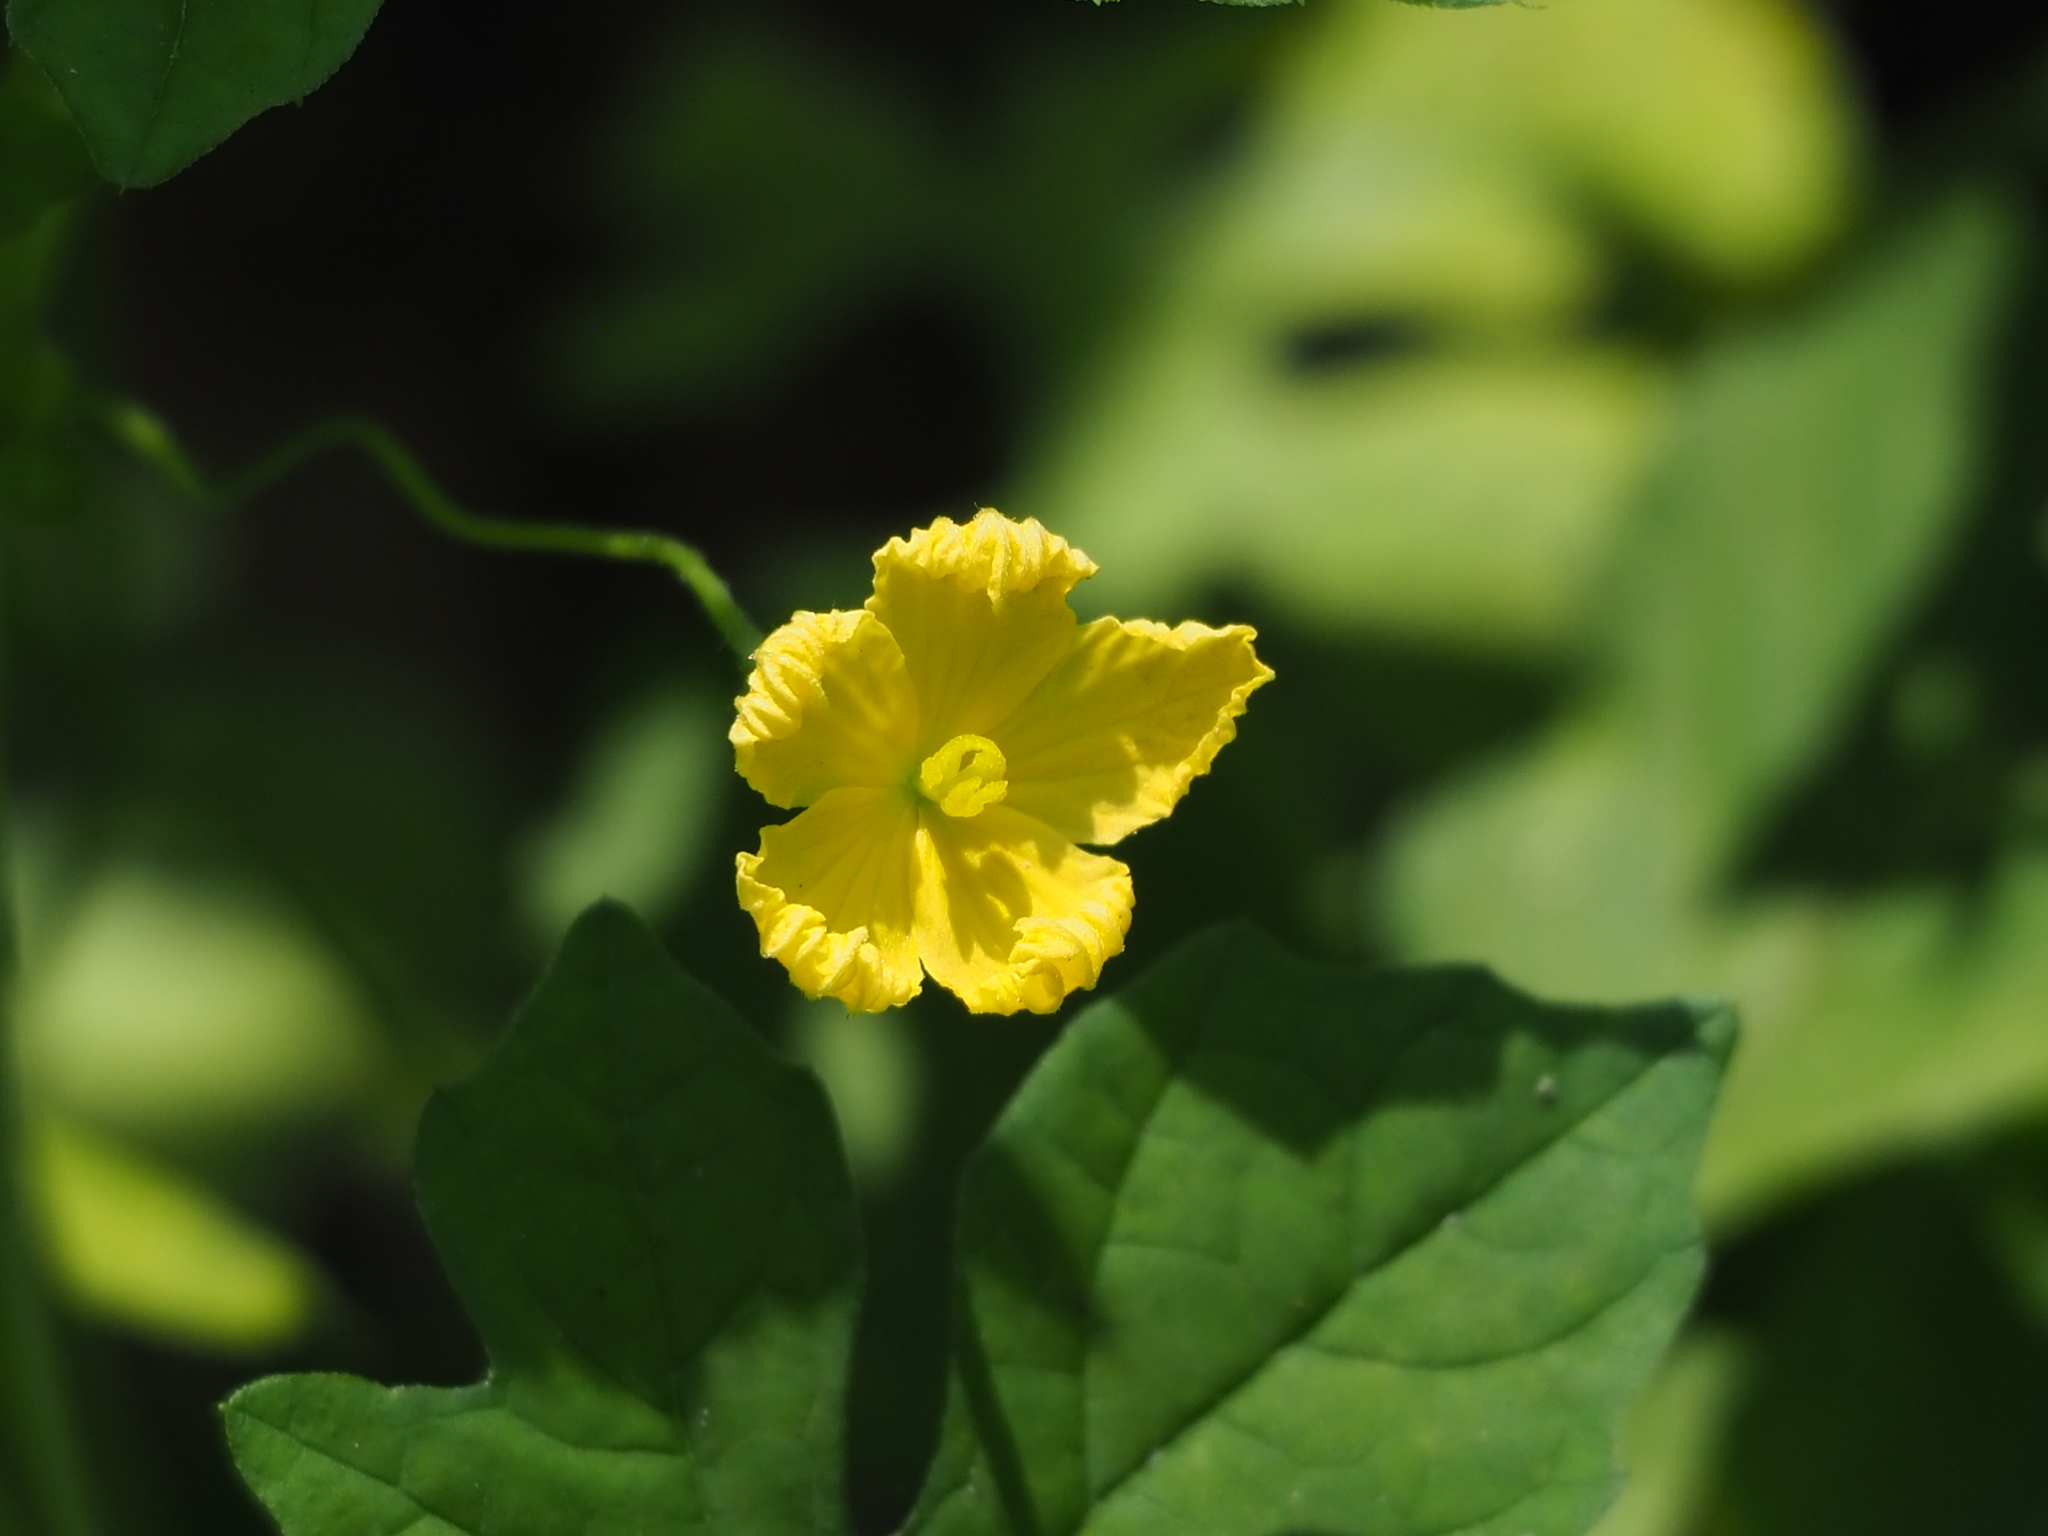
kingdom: Plantae
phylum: Tracheophyta
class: Magnoliopsida
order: Cucurbitales
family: Cucurbitaceae
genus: Momordica
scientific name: Momordica charantia
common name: Balsampear
